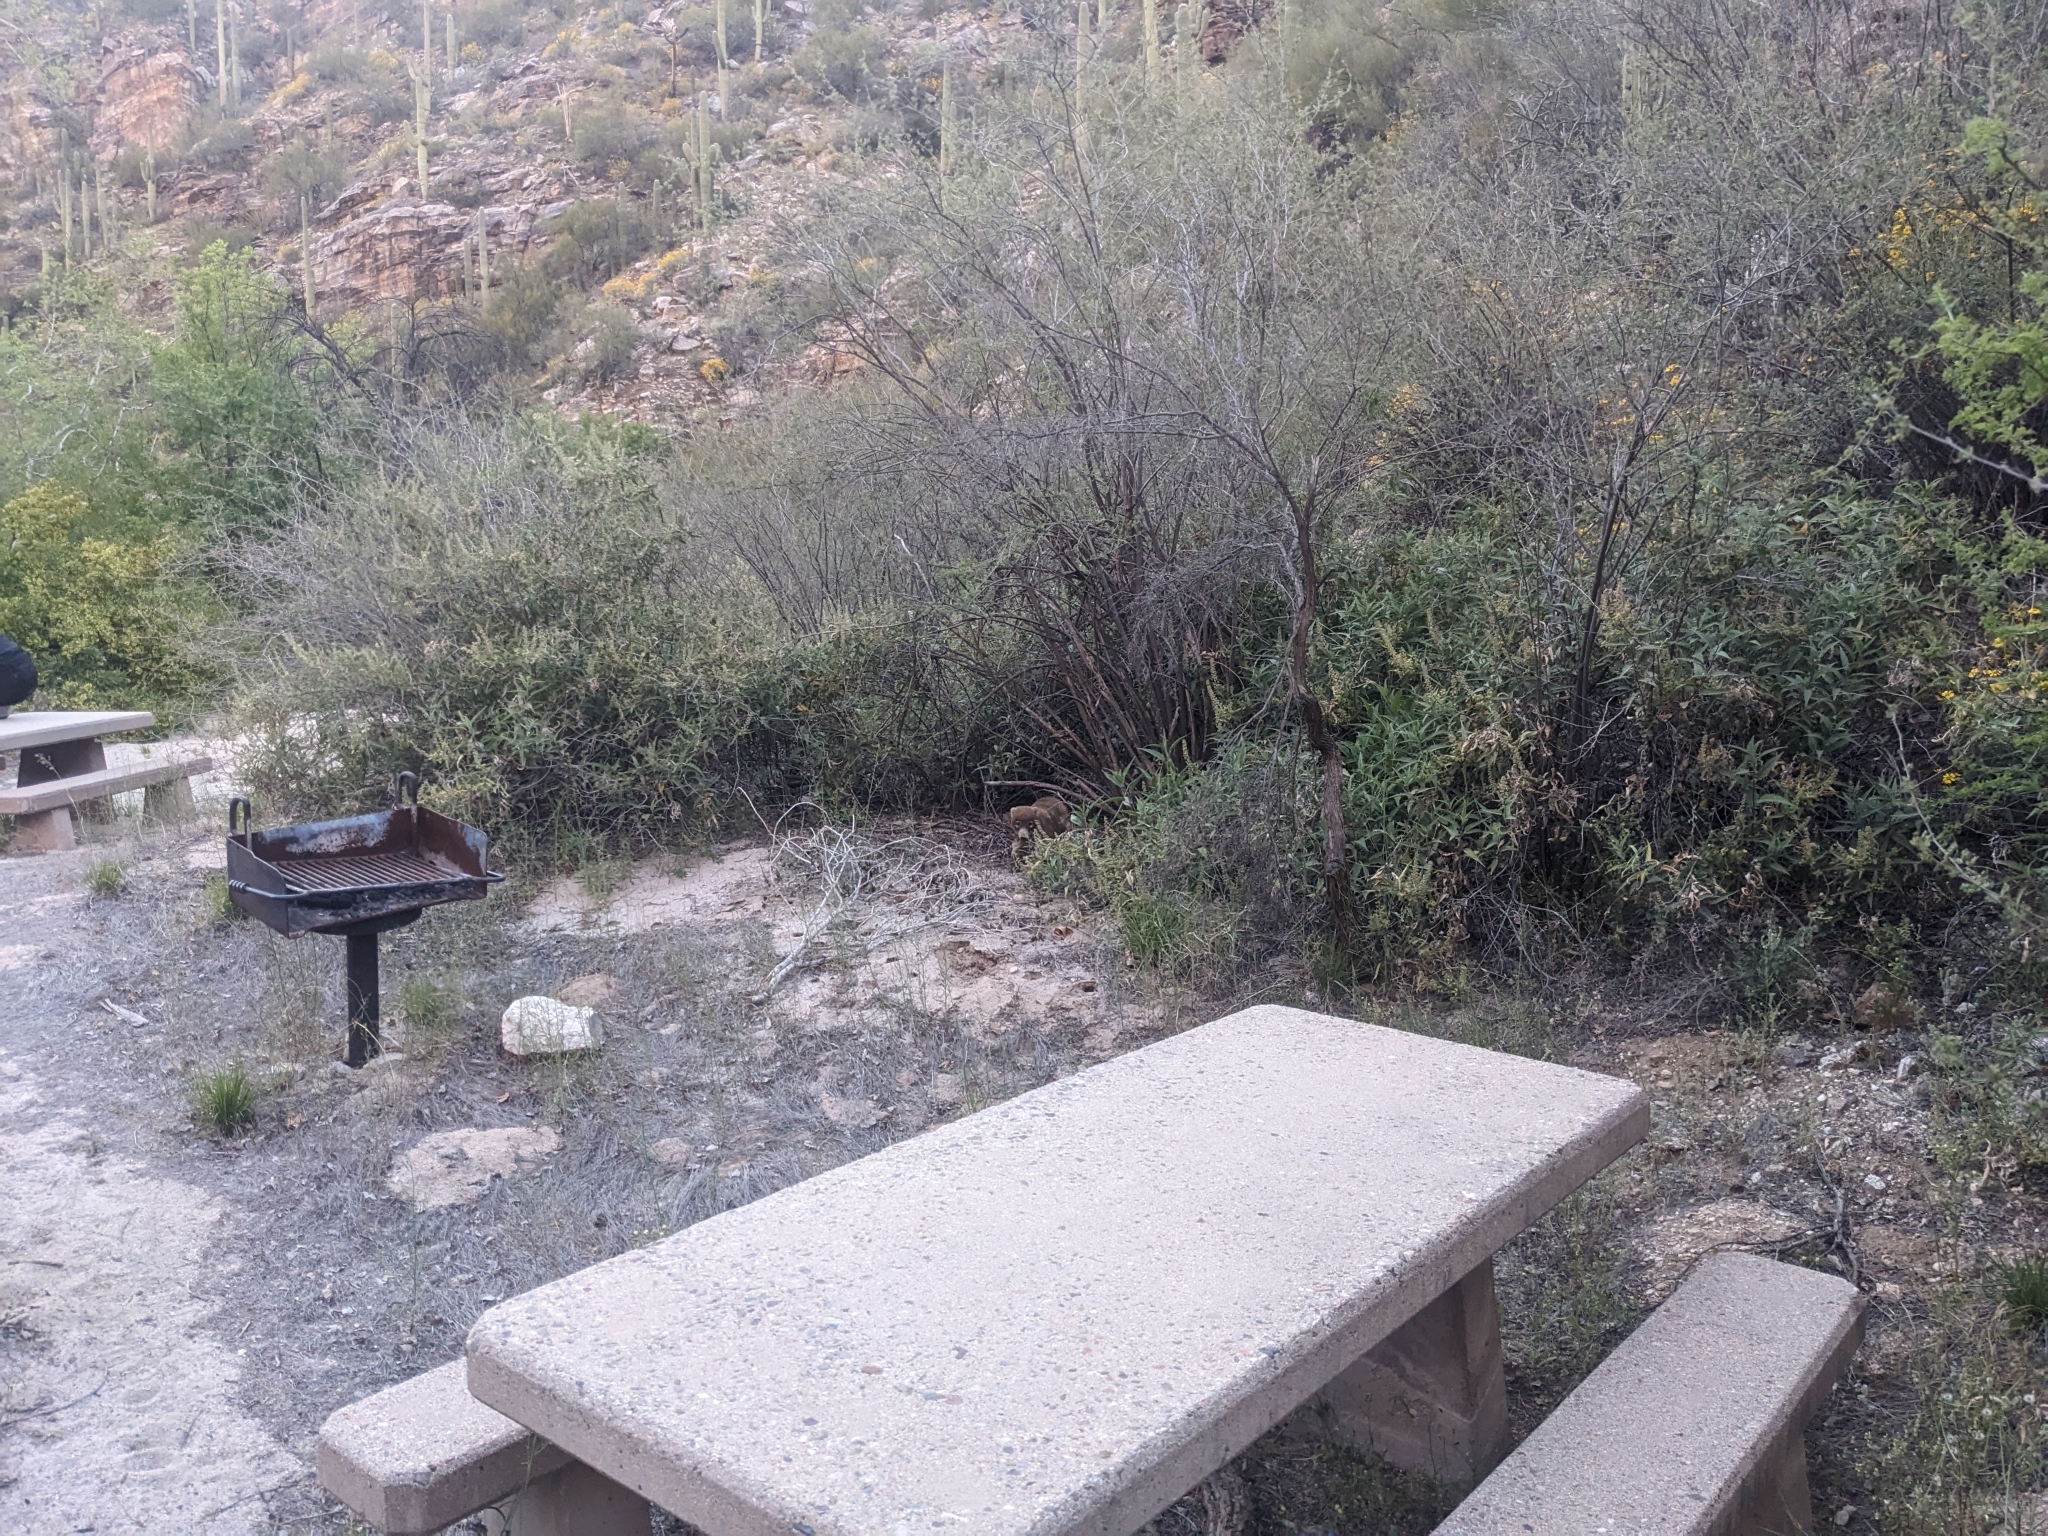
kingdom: Animalia
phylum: Chordata
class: Mammalia
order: Carnivora
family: Procyonidae
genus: Nasua
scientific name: Nasua narica
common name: White-nosed coati
